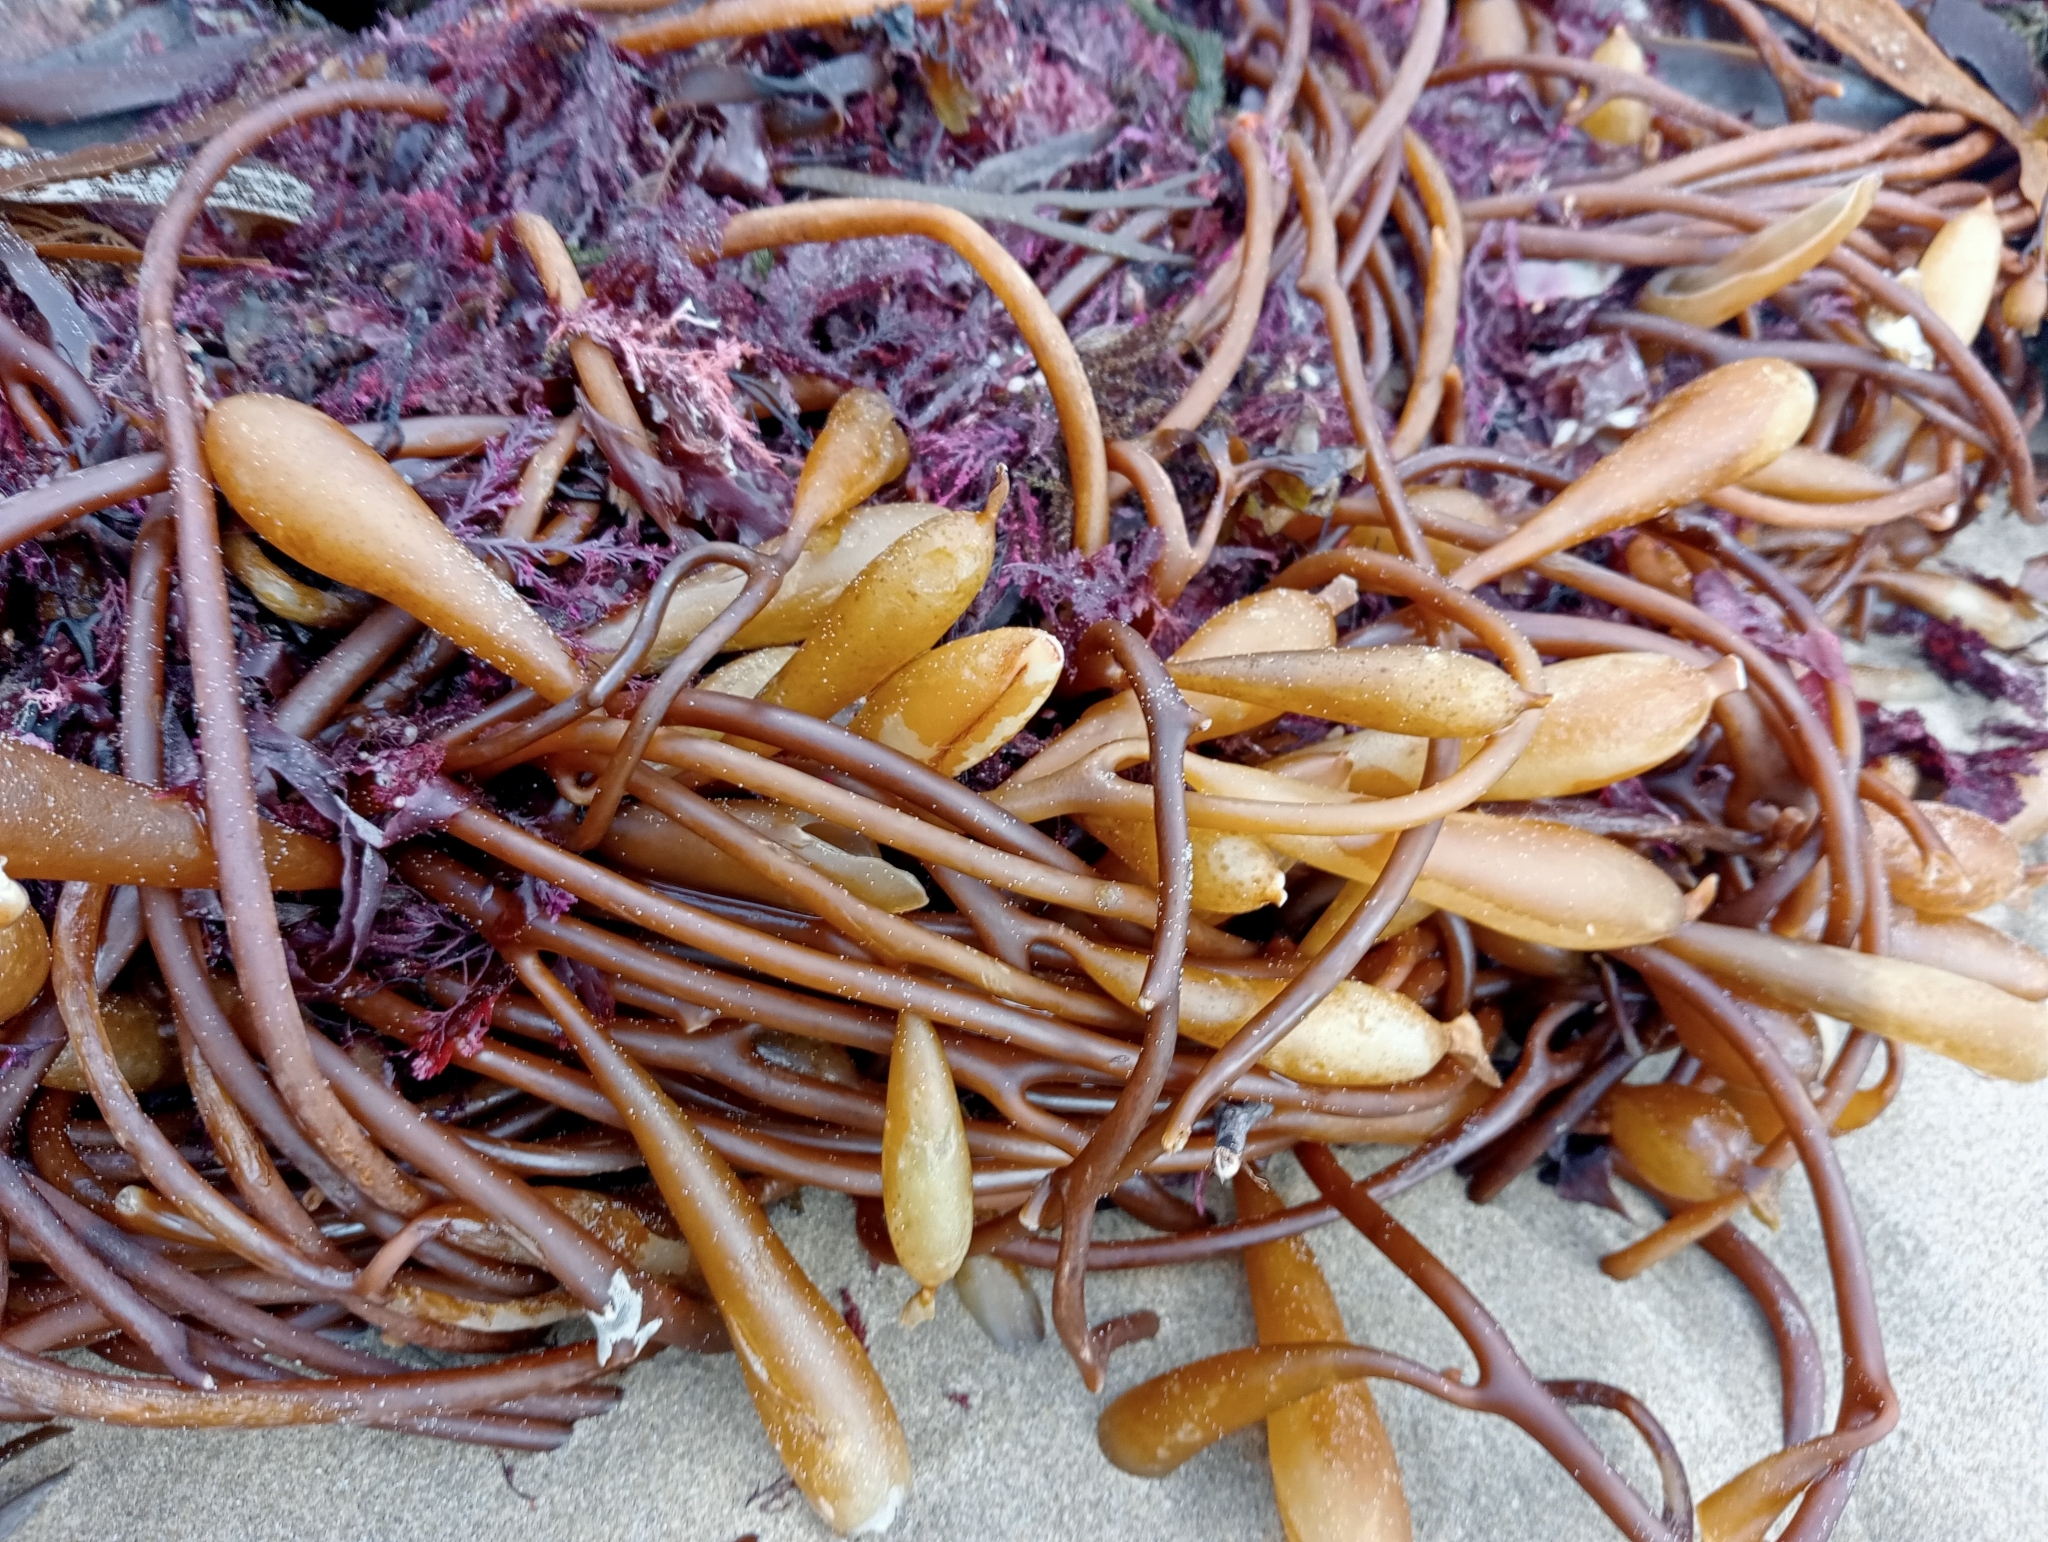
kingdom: Chromista
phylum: Ochrophyta
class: Phaeophyceae
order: Laminariales
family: Laminariaceae
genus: Macrocystis
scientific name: Macrocystis pyrifera
